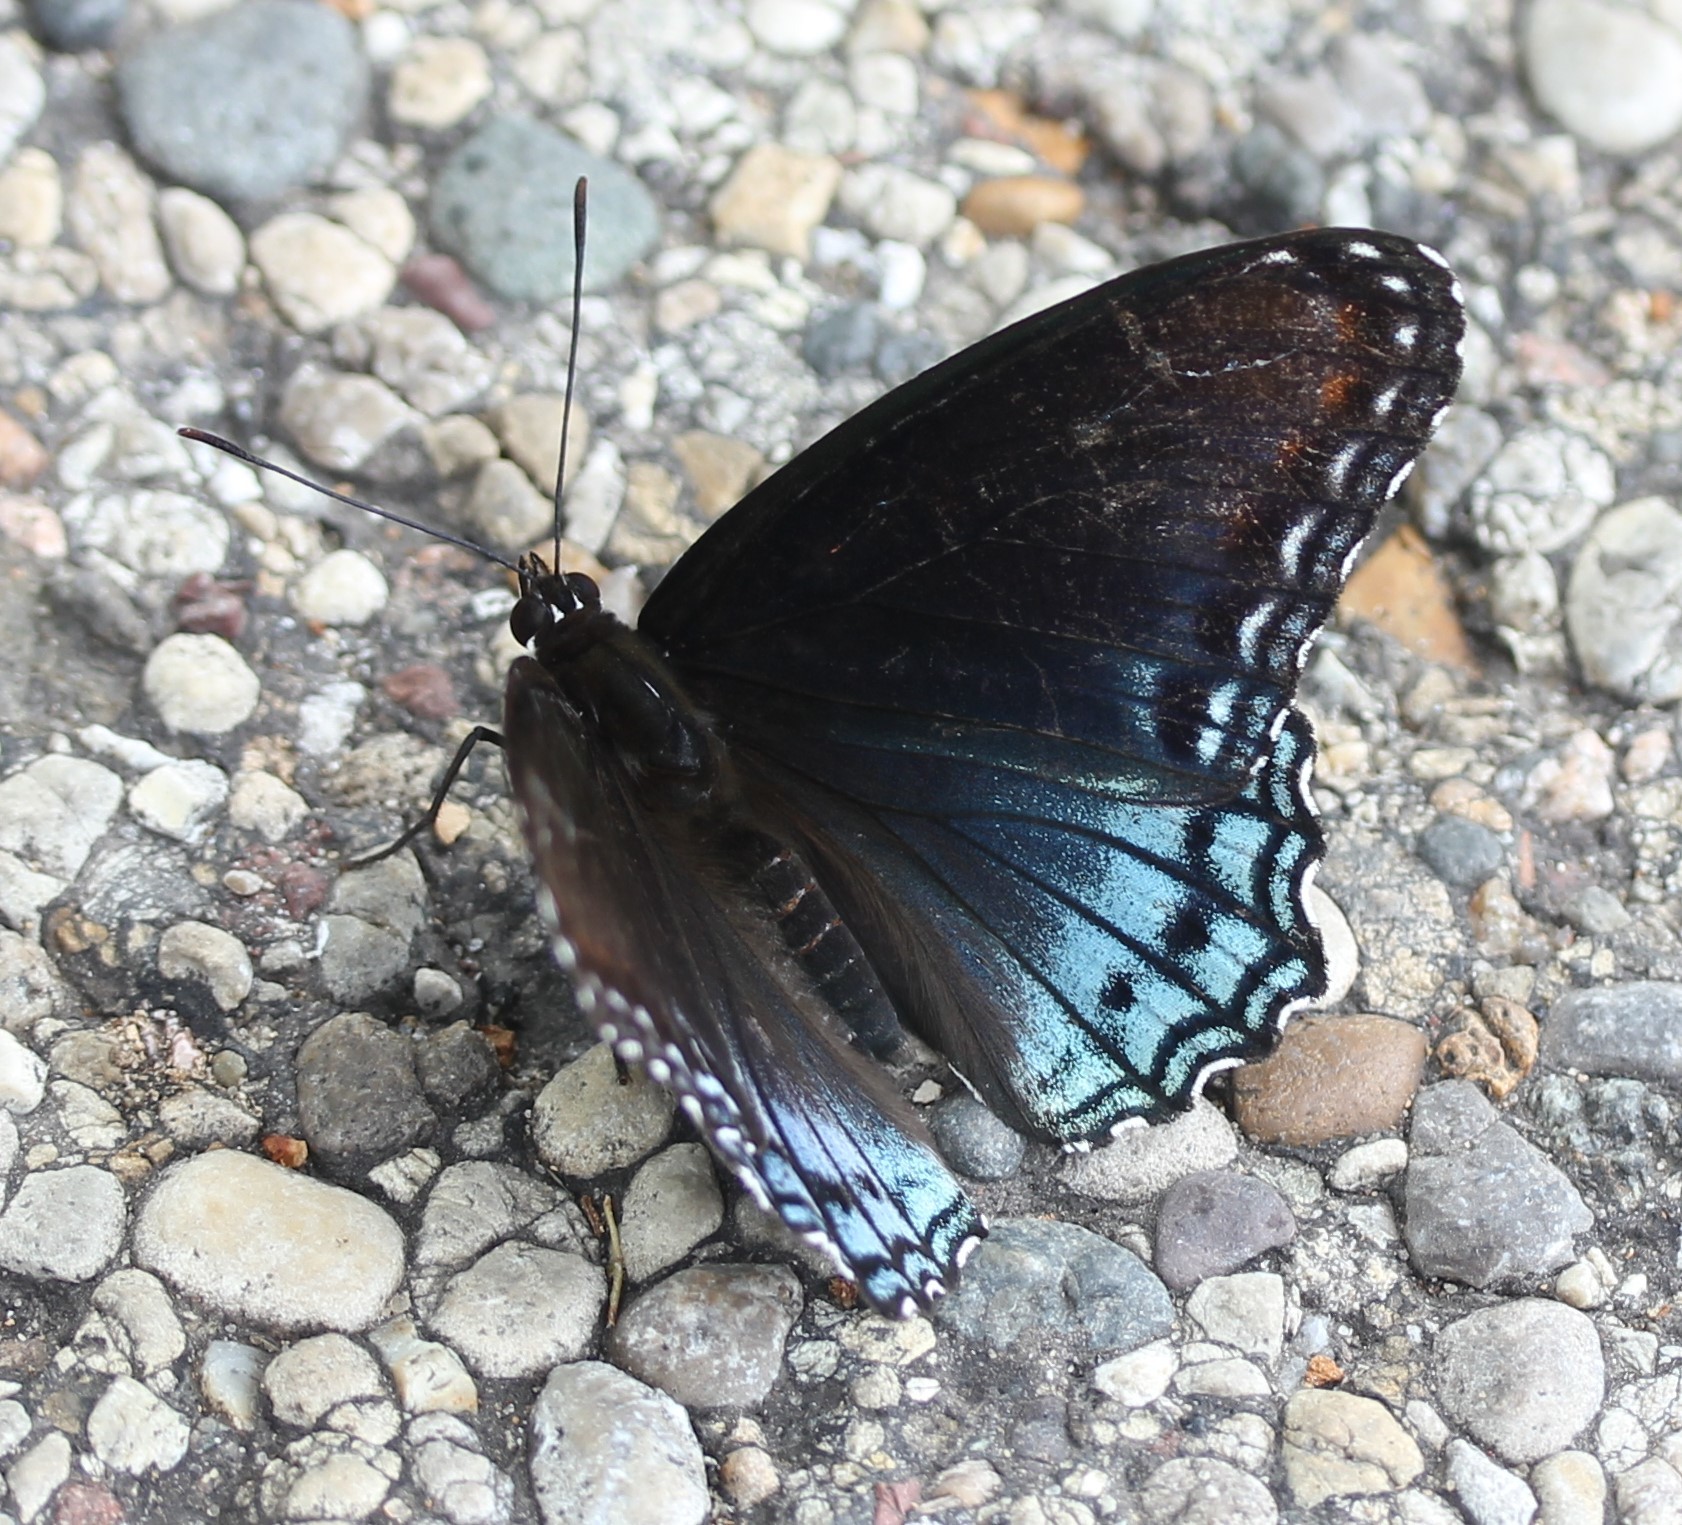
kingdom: Animalia
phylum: Arthropoda
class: Insecta
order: Lepidoptera
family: Nymphalidae
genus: Limenitis
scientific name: Limenitis astyanax
